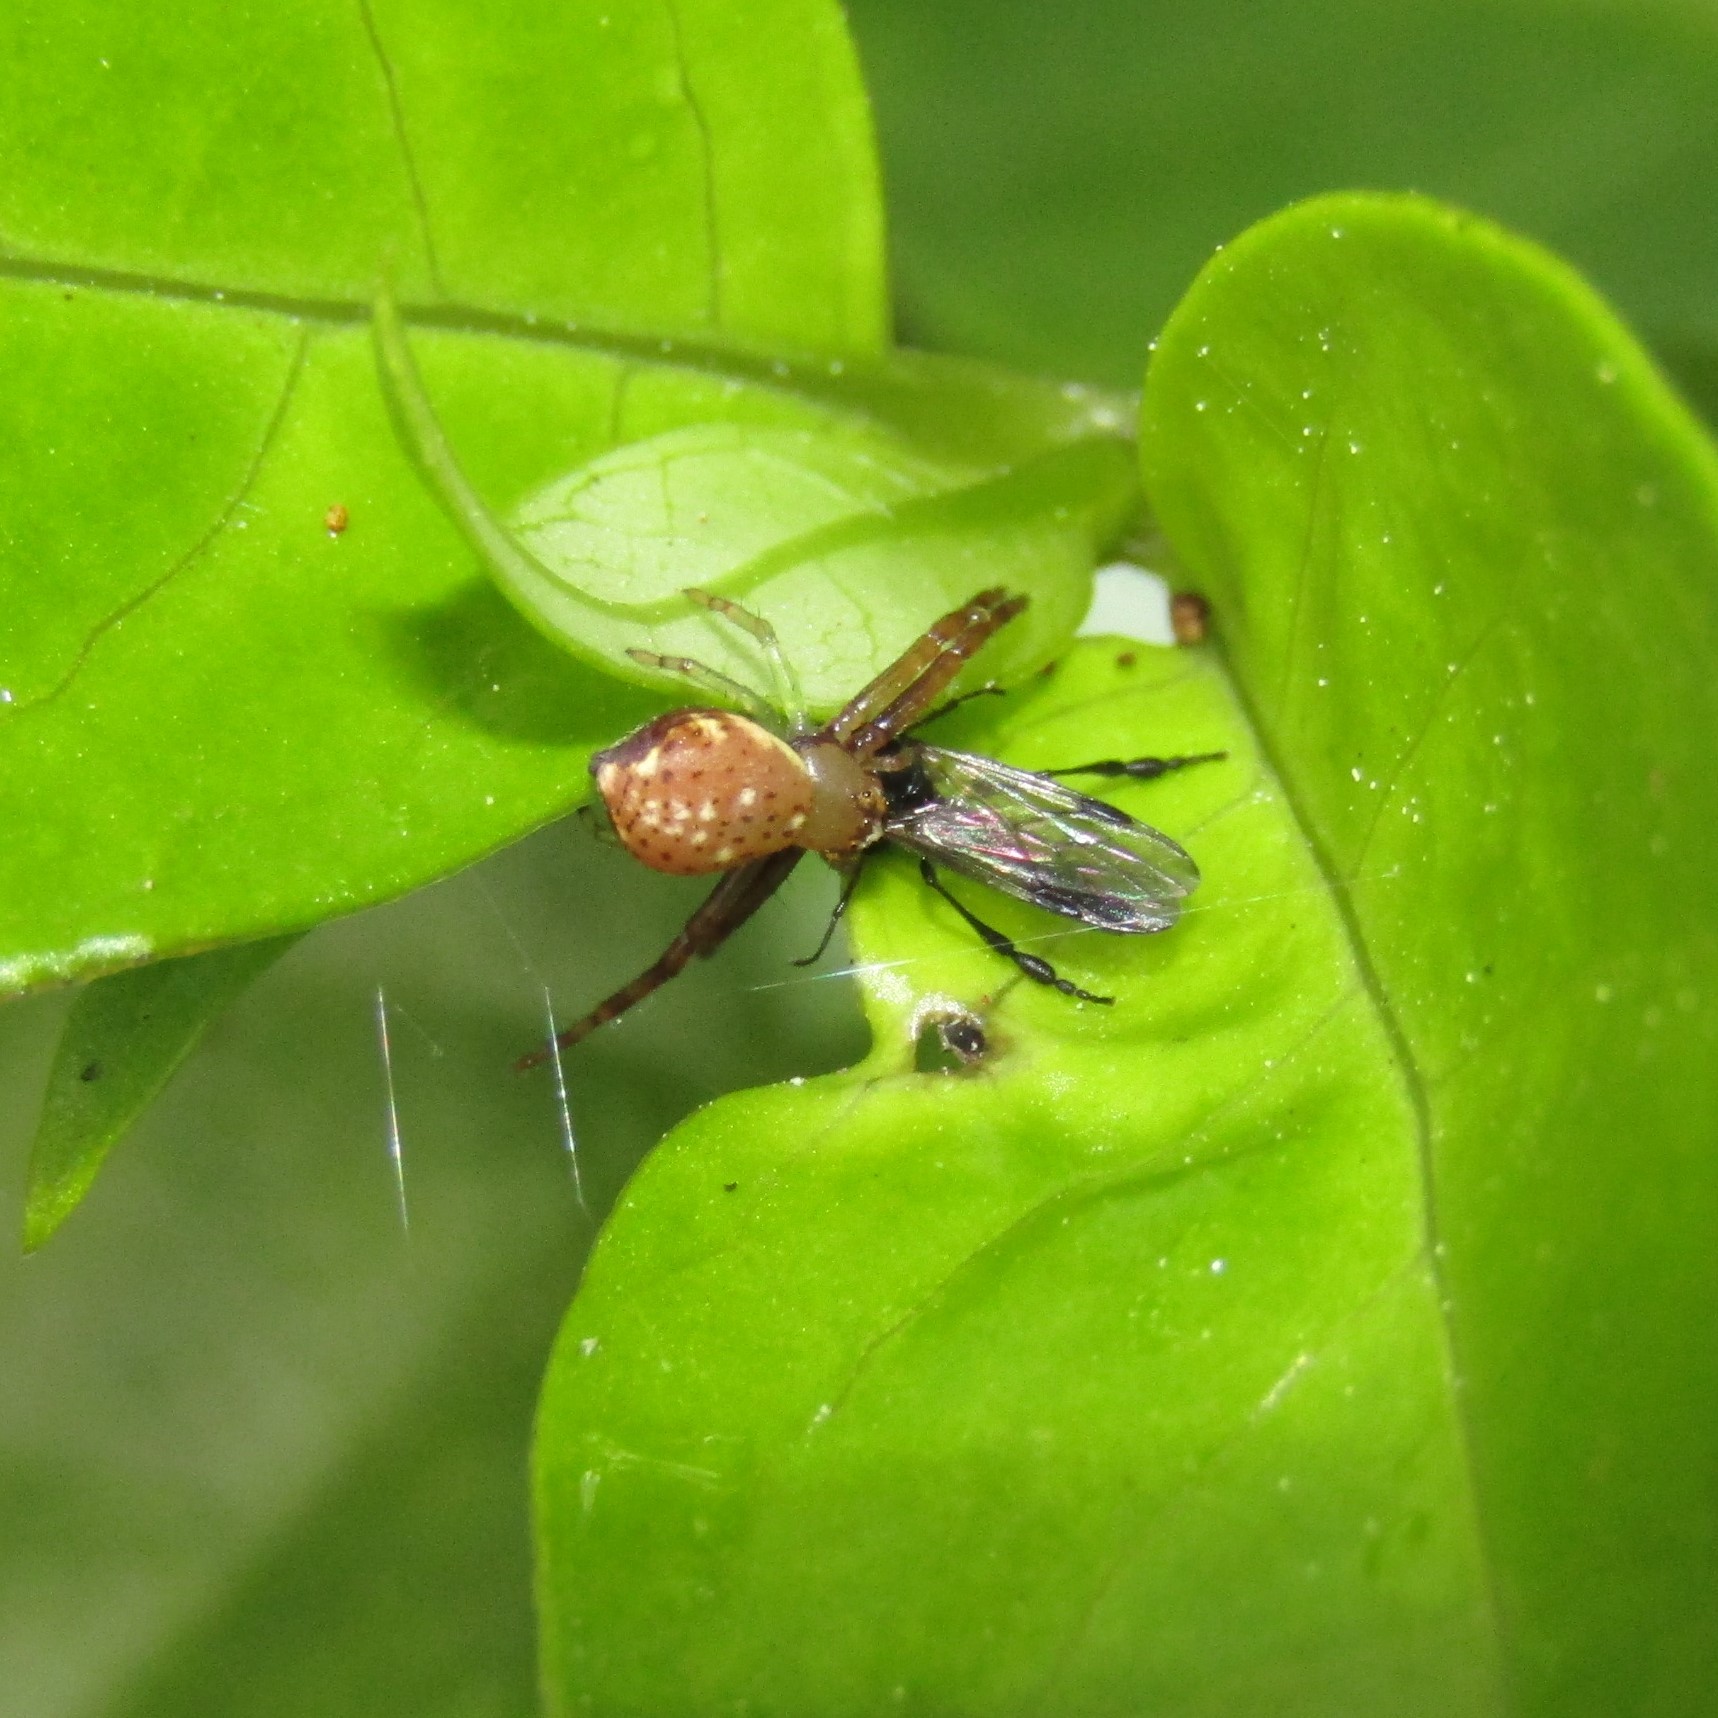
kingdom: Animalia
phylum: Arthropoda
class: Insecta
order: Diptera
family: Bibionidae
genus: Dilophus
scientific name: Dilophus segnis
